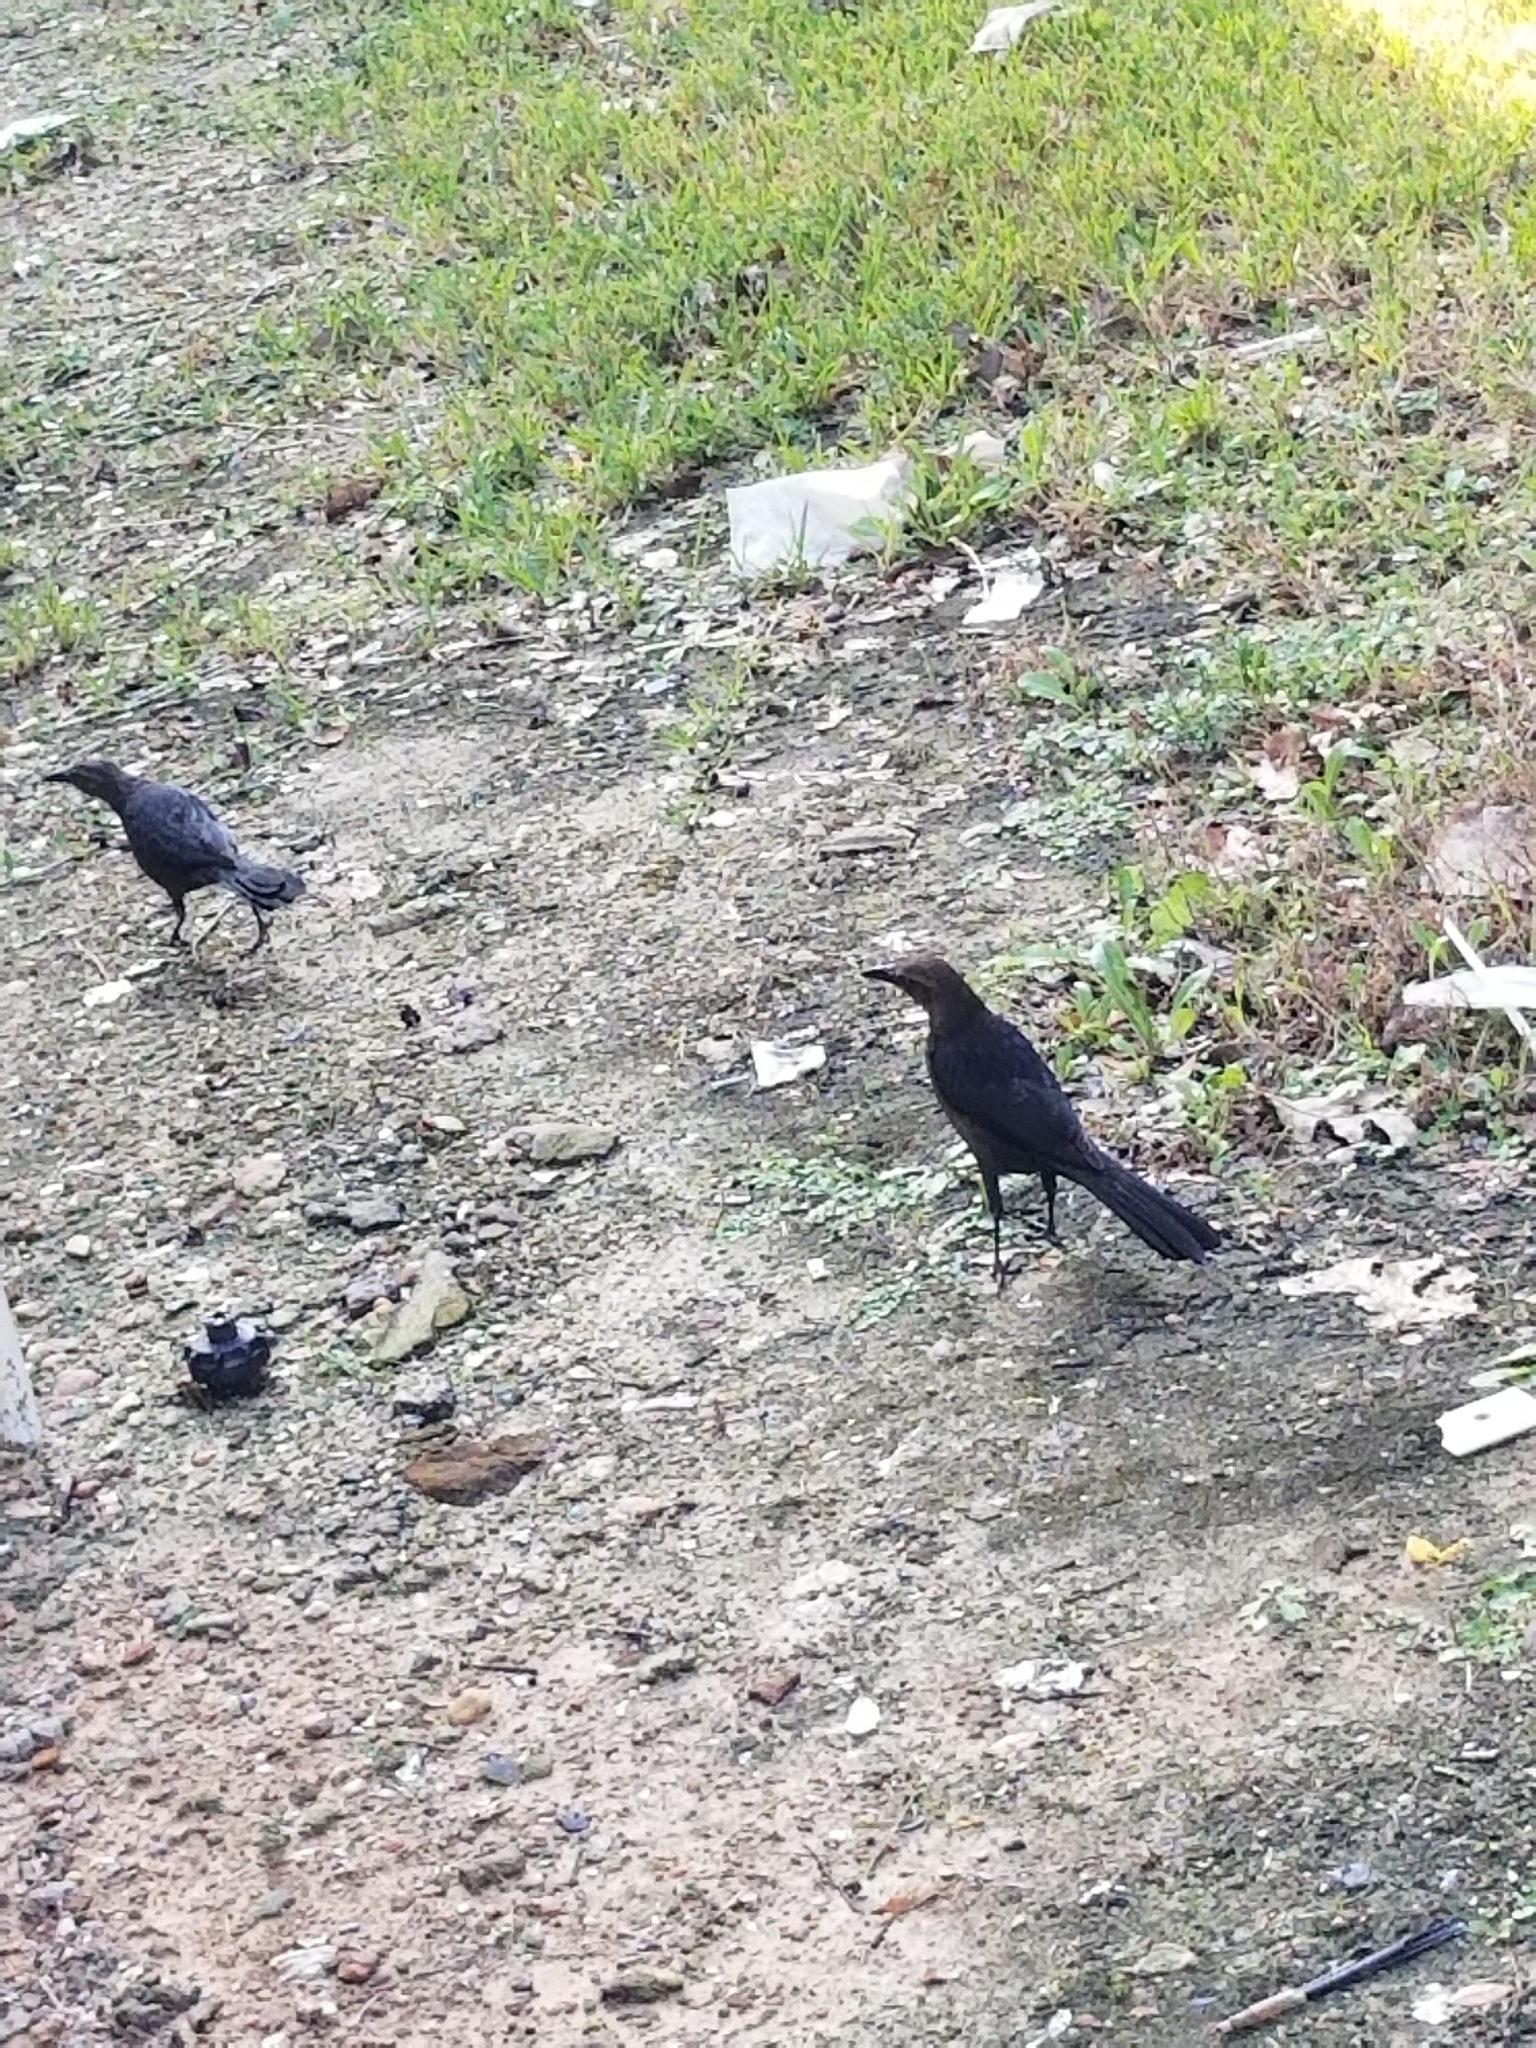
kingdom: Animalia
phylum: Chordata
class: Aves
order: Passeriformes
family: Icteridae
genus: Quiscalus
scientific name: Quiscalus mexicanus
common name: Great-tailed grackle
